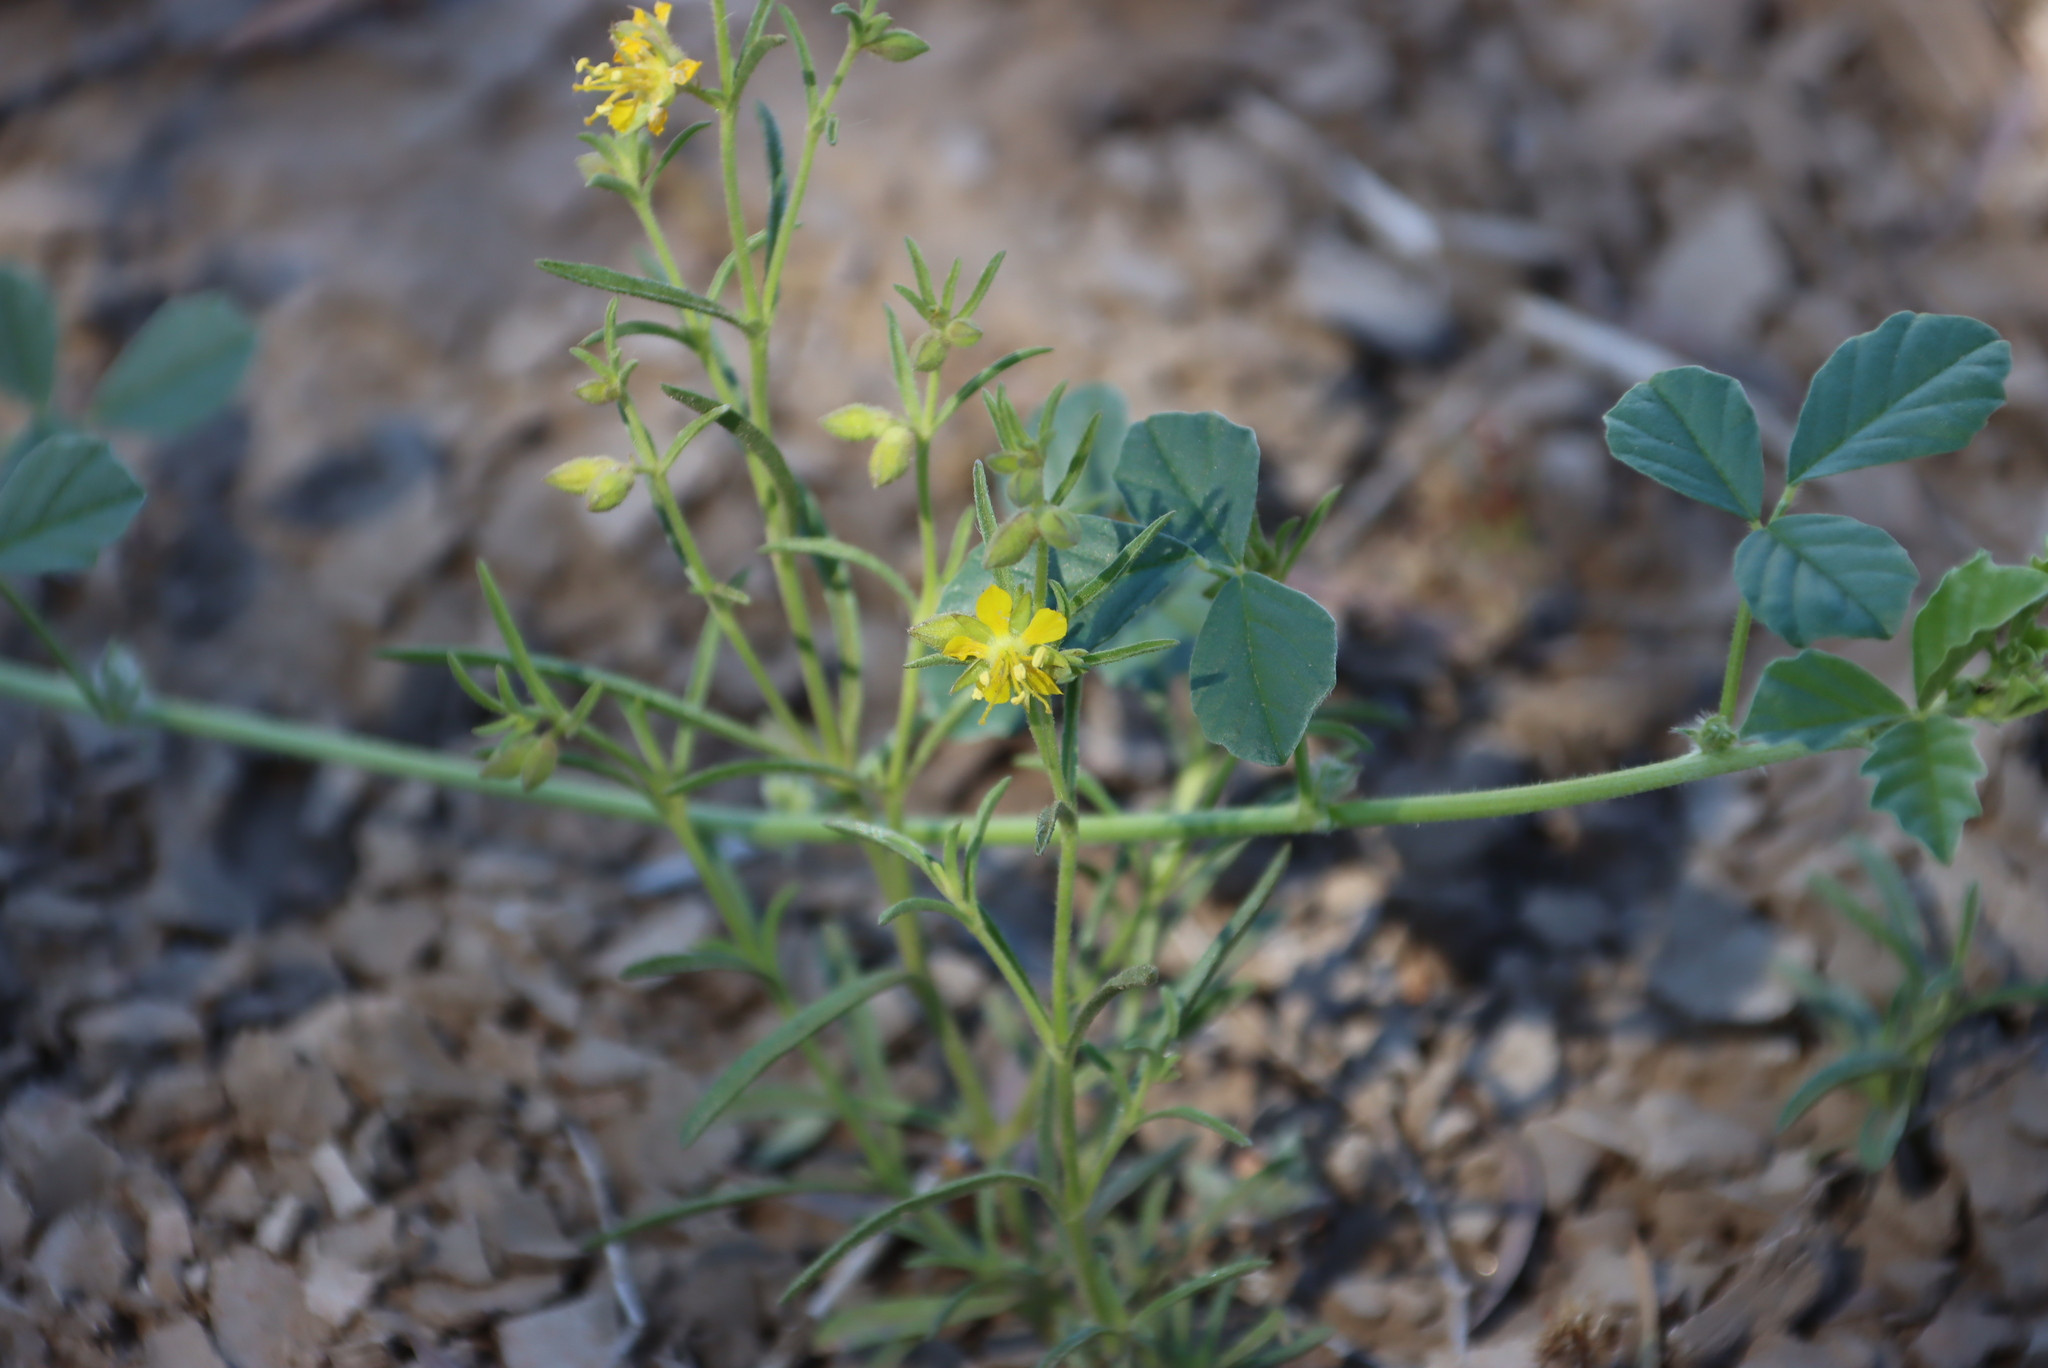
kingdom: Plantae
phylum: Tracheophyta
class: Magnoliopsida
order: Vahliales
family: Vahliaceae
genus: Vahlia
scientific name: Vahlia capensis
